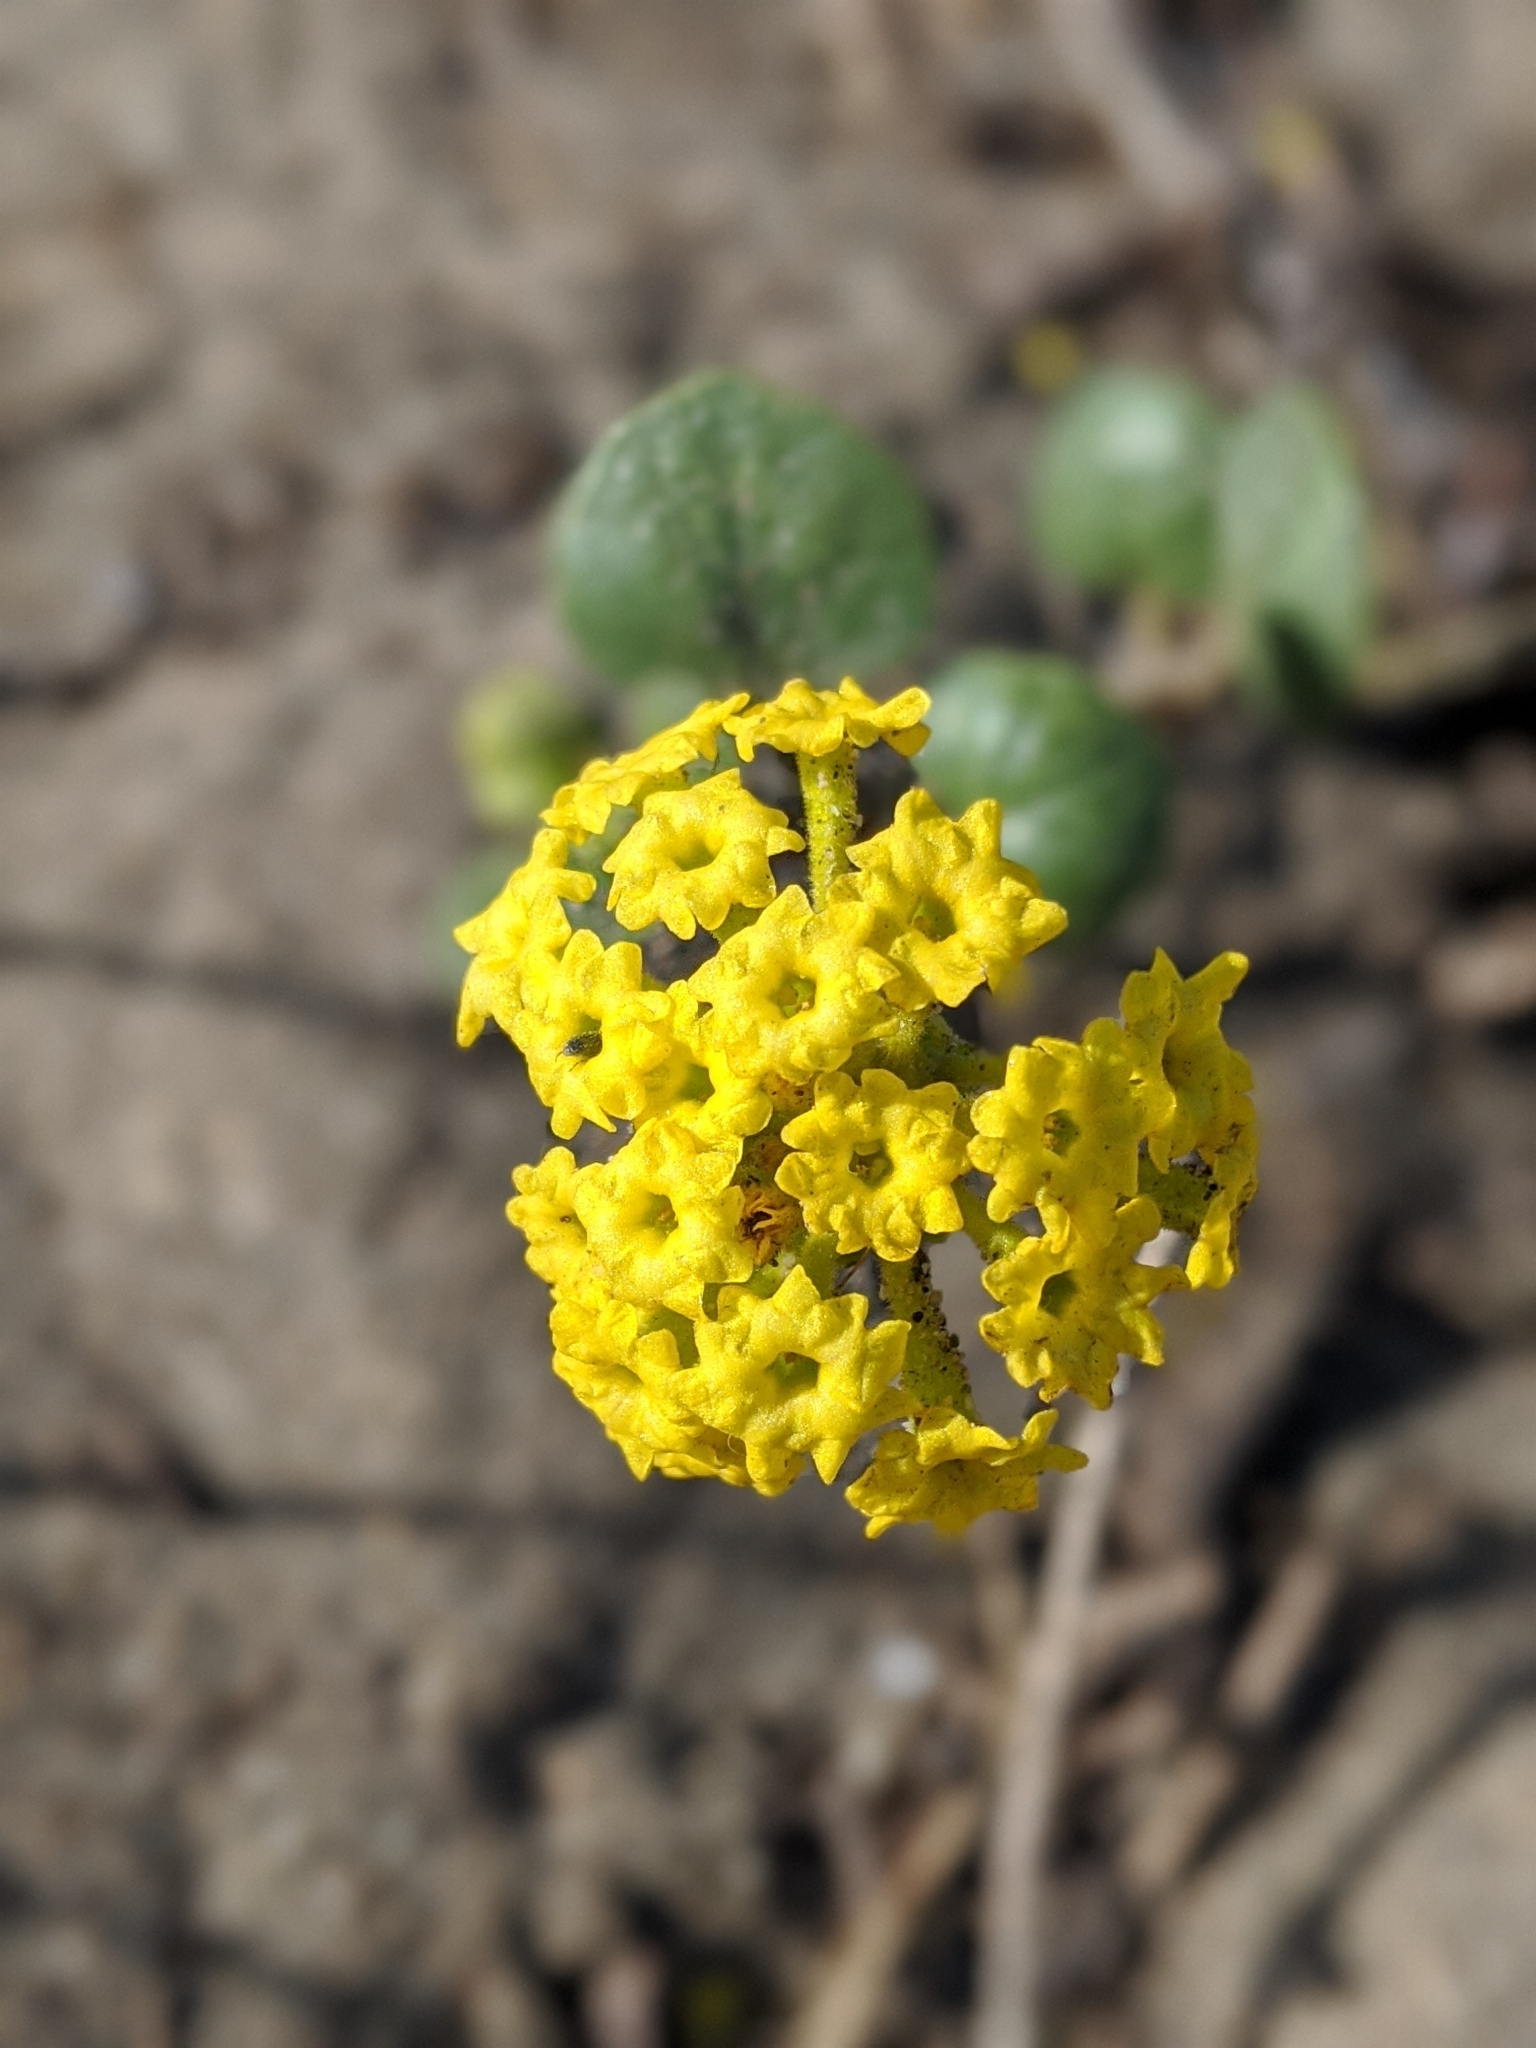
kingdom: Plantae
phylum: Tracheophyta
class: Magnoliopsida
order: Caryophyllales
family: Nyctaginaceae
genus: Abronia
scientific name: Abronia latifolia
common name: Yellow sand-verbena
